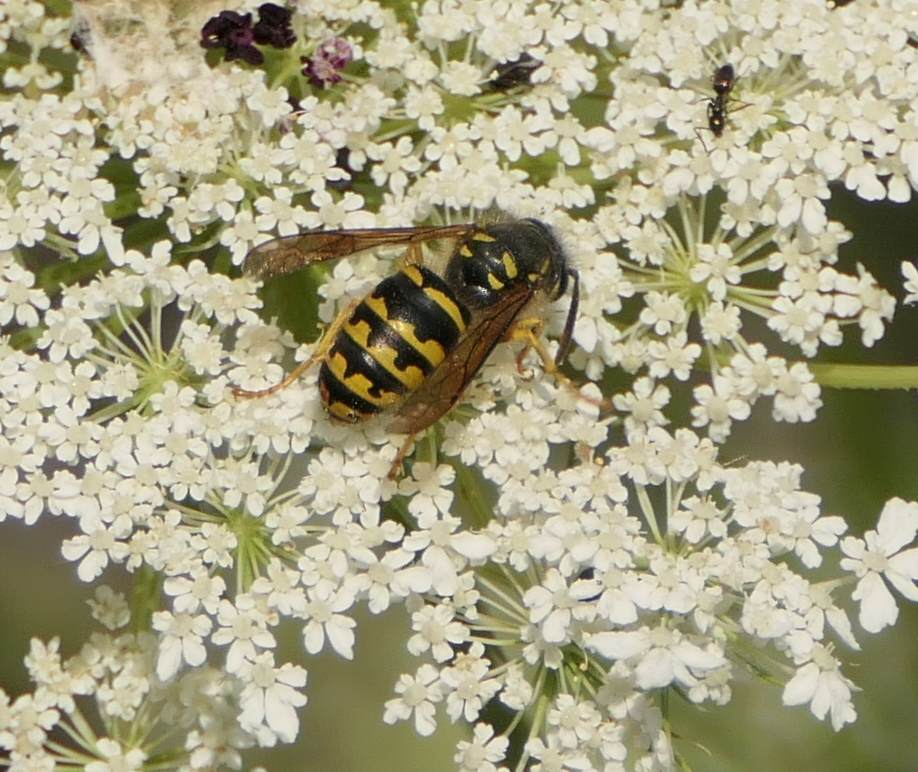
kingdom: Animalia
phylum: Arthropoda
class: Insecta
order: Hymenoptera
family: Vespidae
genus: Dolichovespula
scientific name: Dolichovespula arenaria
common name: Aerial yellowjacket
